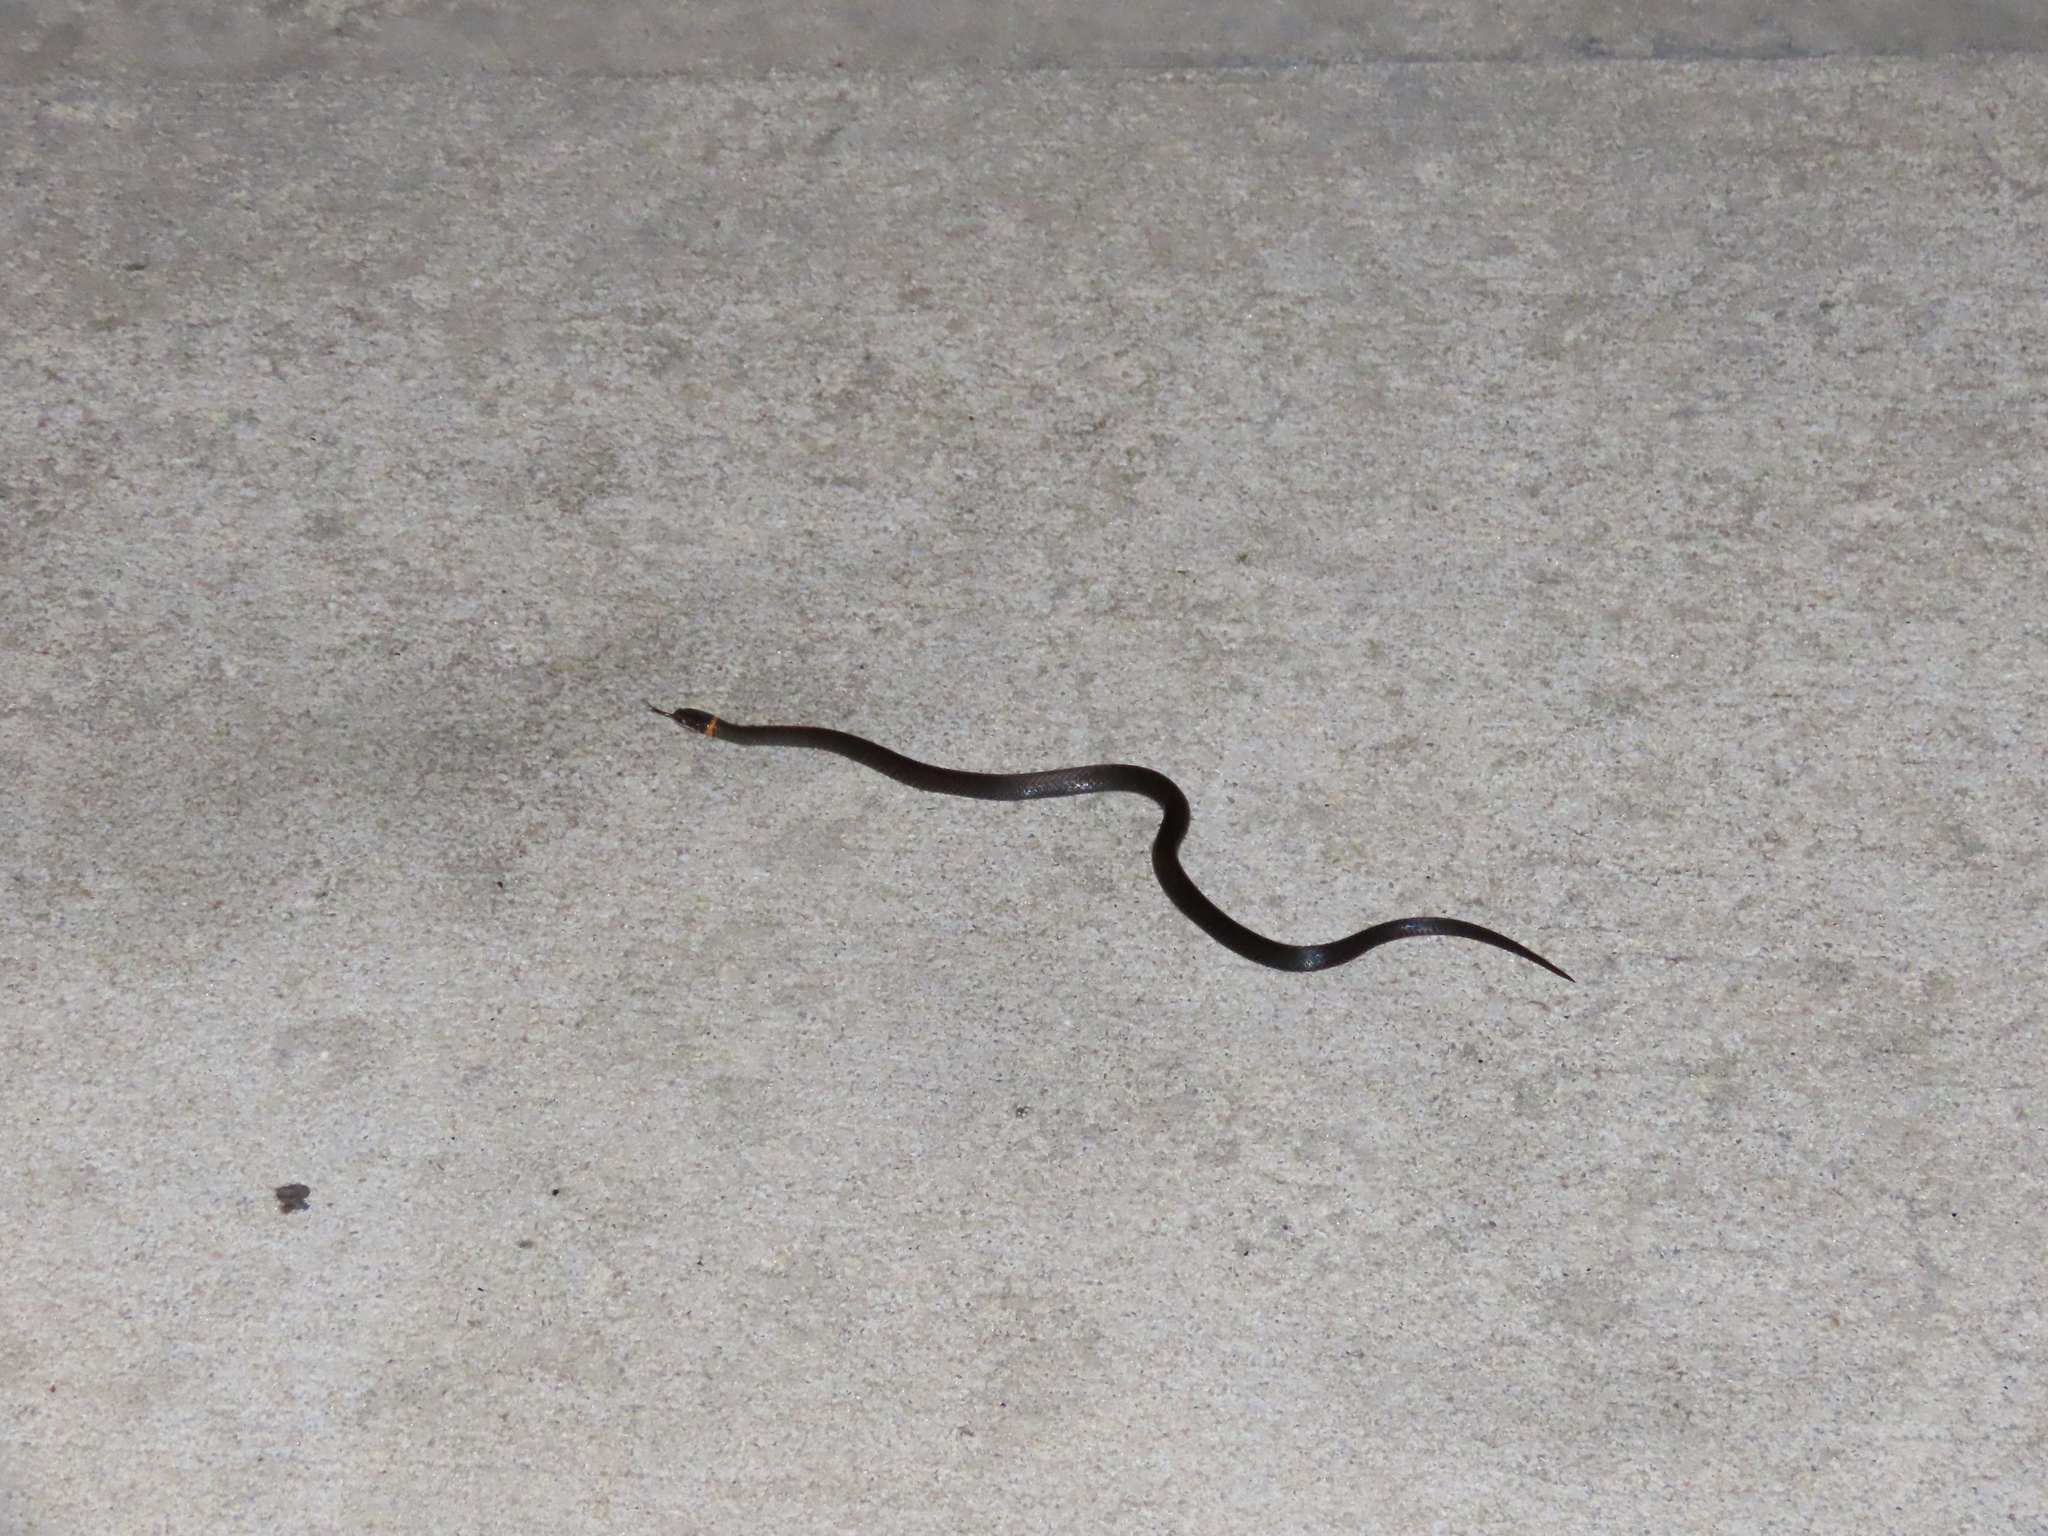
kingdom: Animalia
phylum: Chordata
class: Squamata
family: Colubridae
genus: Diadophis
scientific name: Diadophis punctatus
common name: Ringneck snake
